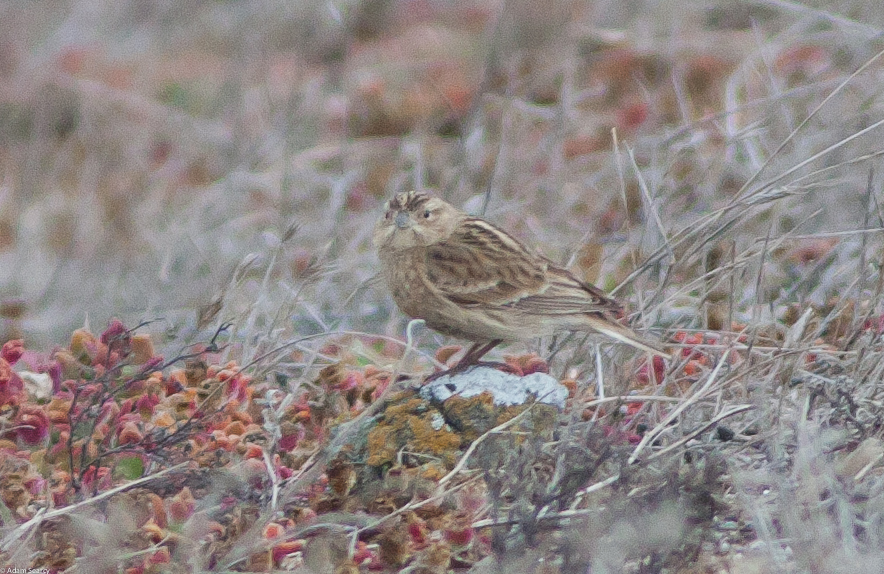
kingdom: Animalia
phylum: Chordata
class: Aves
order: Passeriformes
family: Calcariidae
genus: Calcarius
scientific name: Calcarius ornatus
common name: Chestnut-collared longspur
